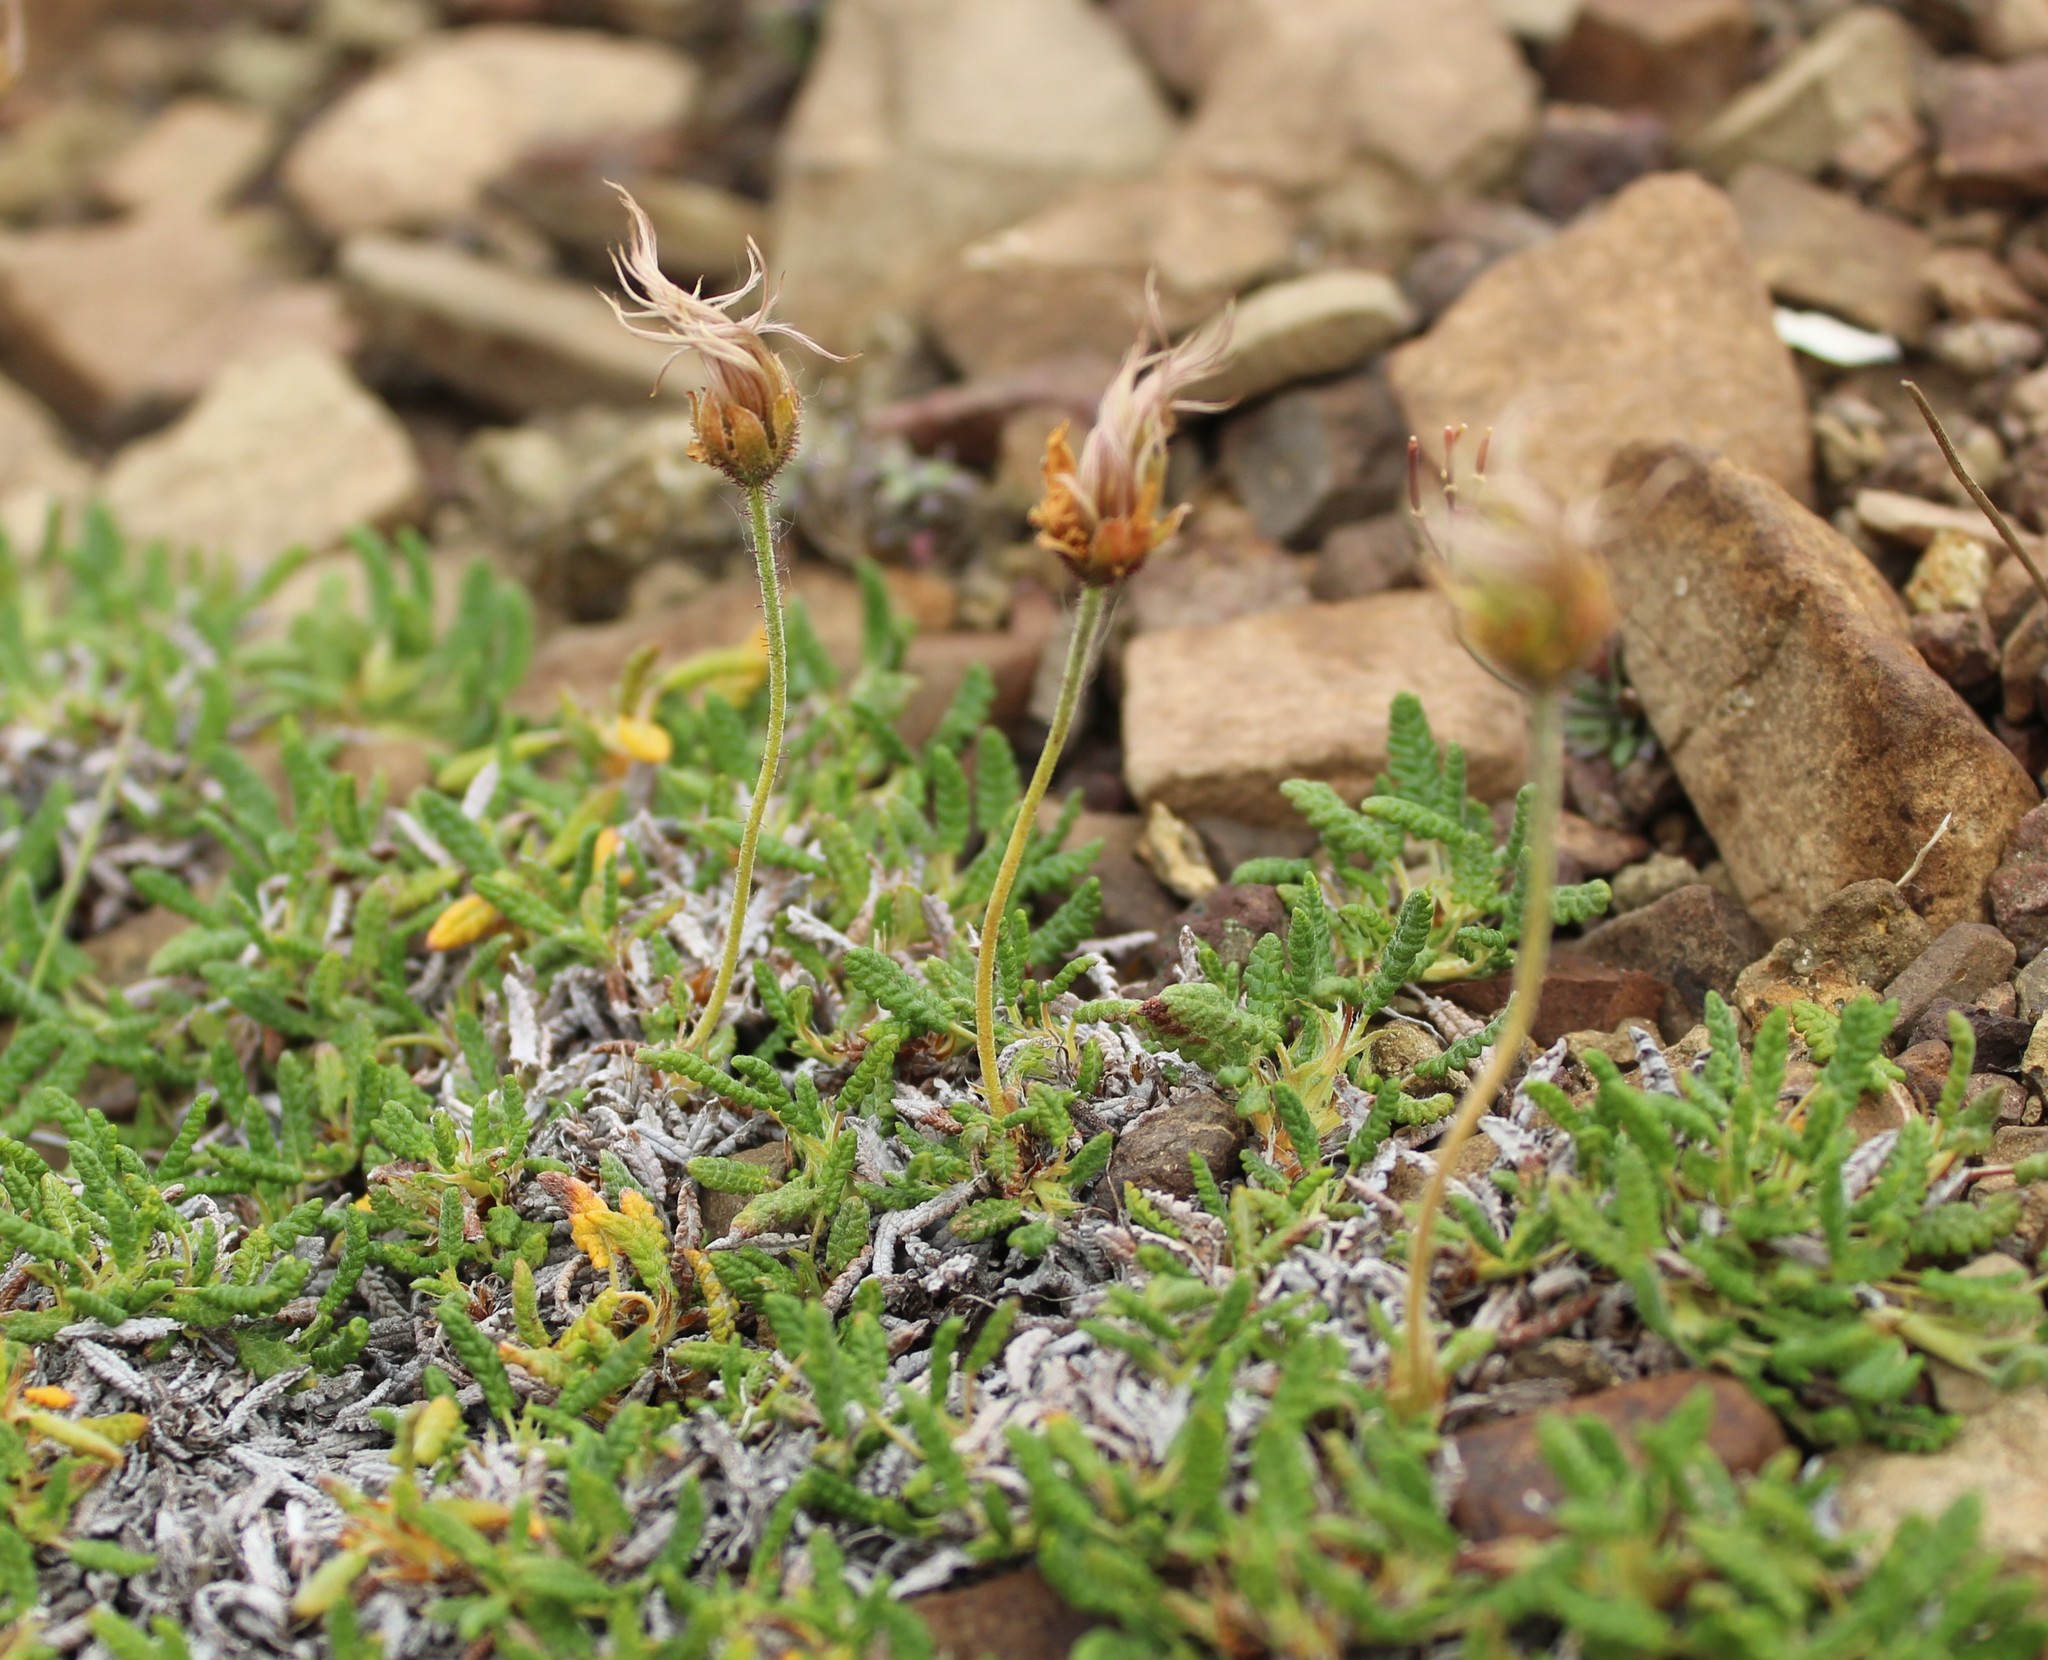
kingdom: Plantae
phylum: Tracheophyta
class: Magnoliopsida
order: Rosales
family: Rosaceae
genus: Dryas
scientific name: Dryas octopetala
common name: Eight-petal mountain-avens
